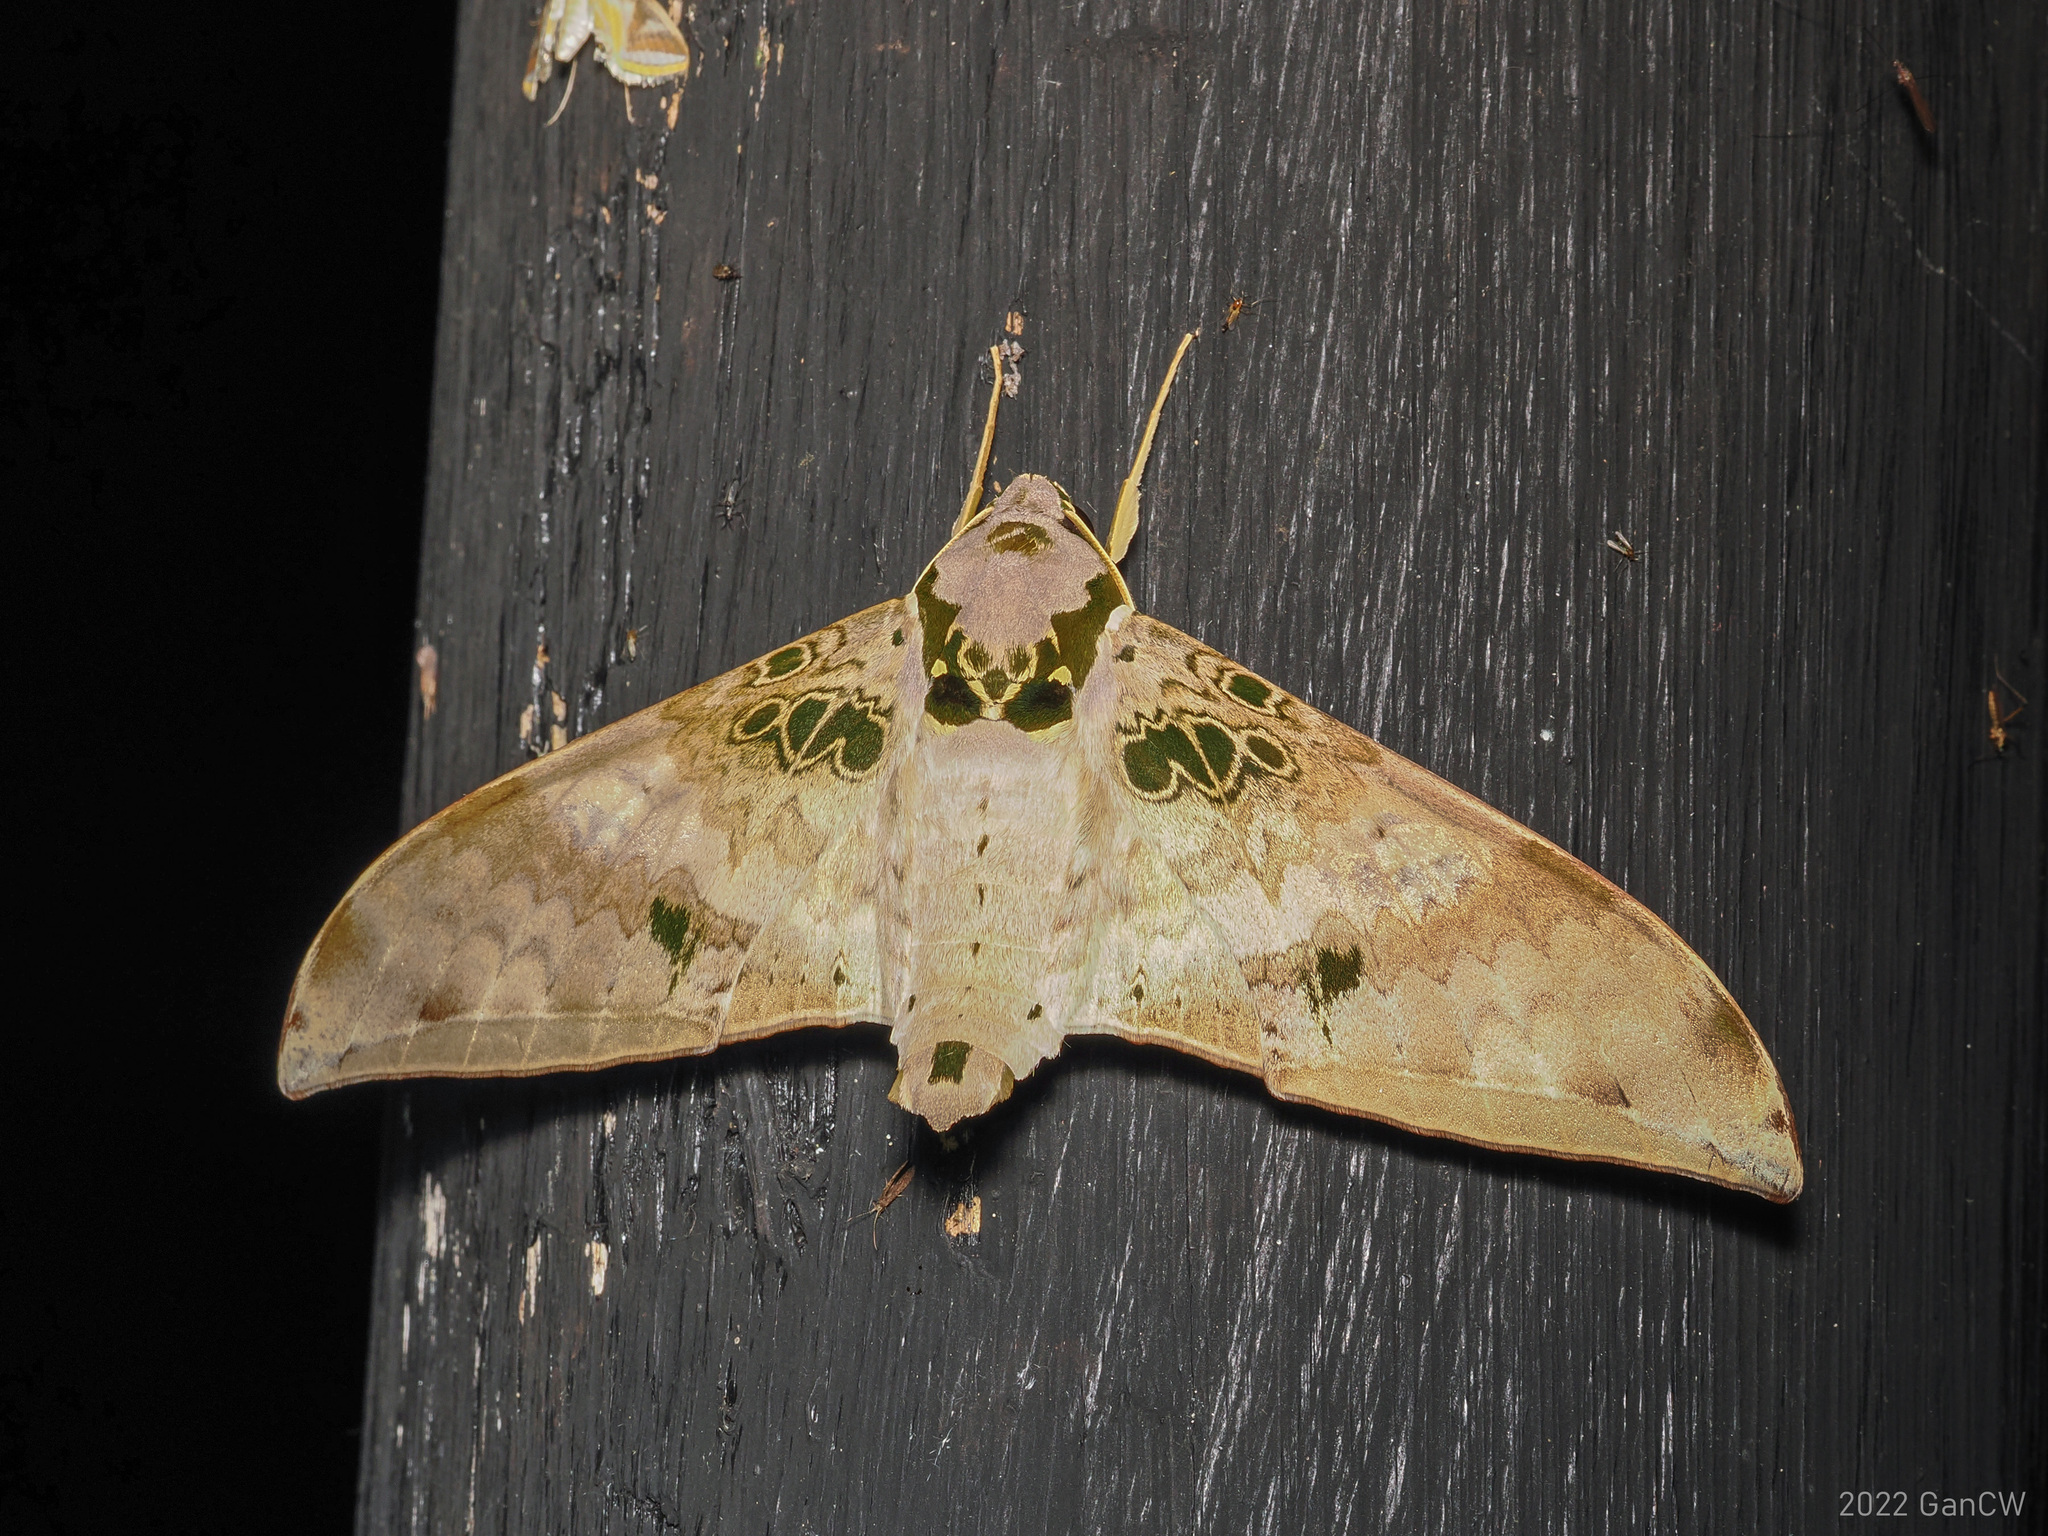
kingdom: Animalia
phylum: Arthropoda
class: Insecta
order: Lepidoptera
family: Sphingidae
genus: Ambulyx
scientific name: Ambulyx canescens
